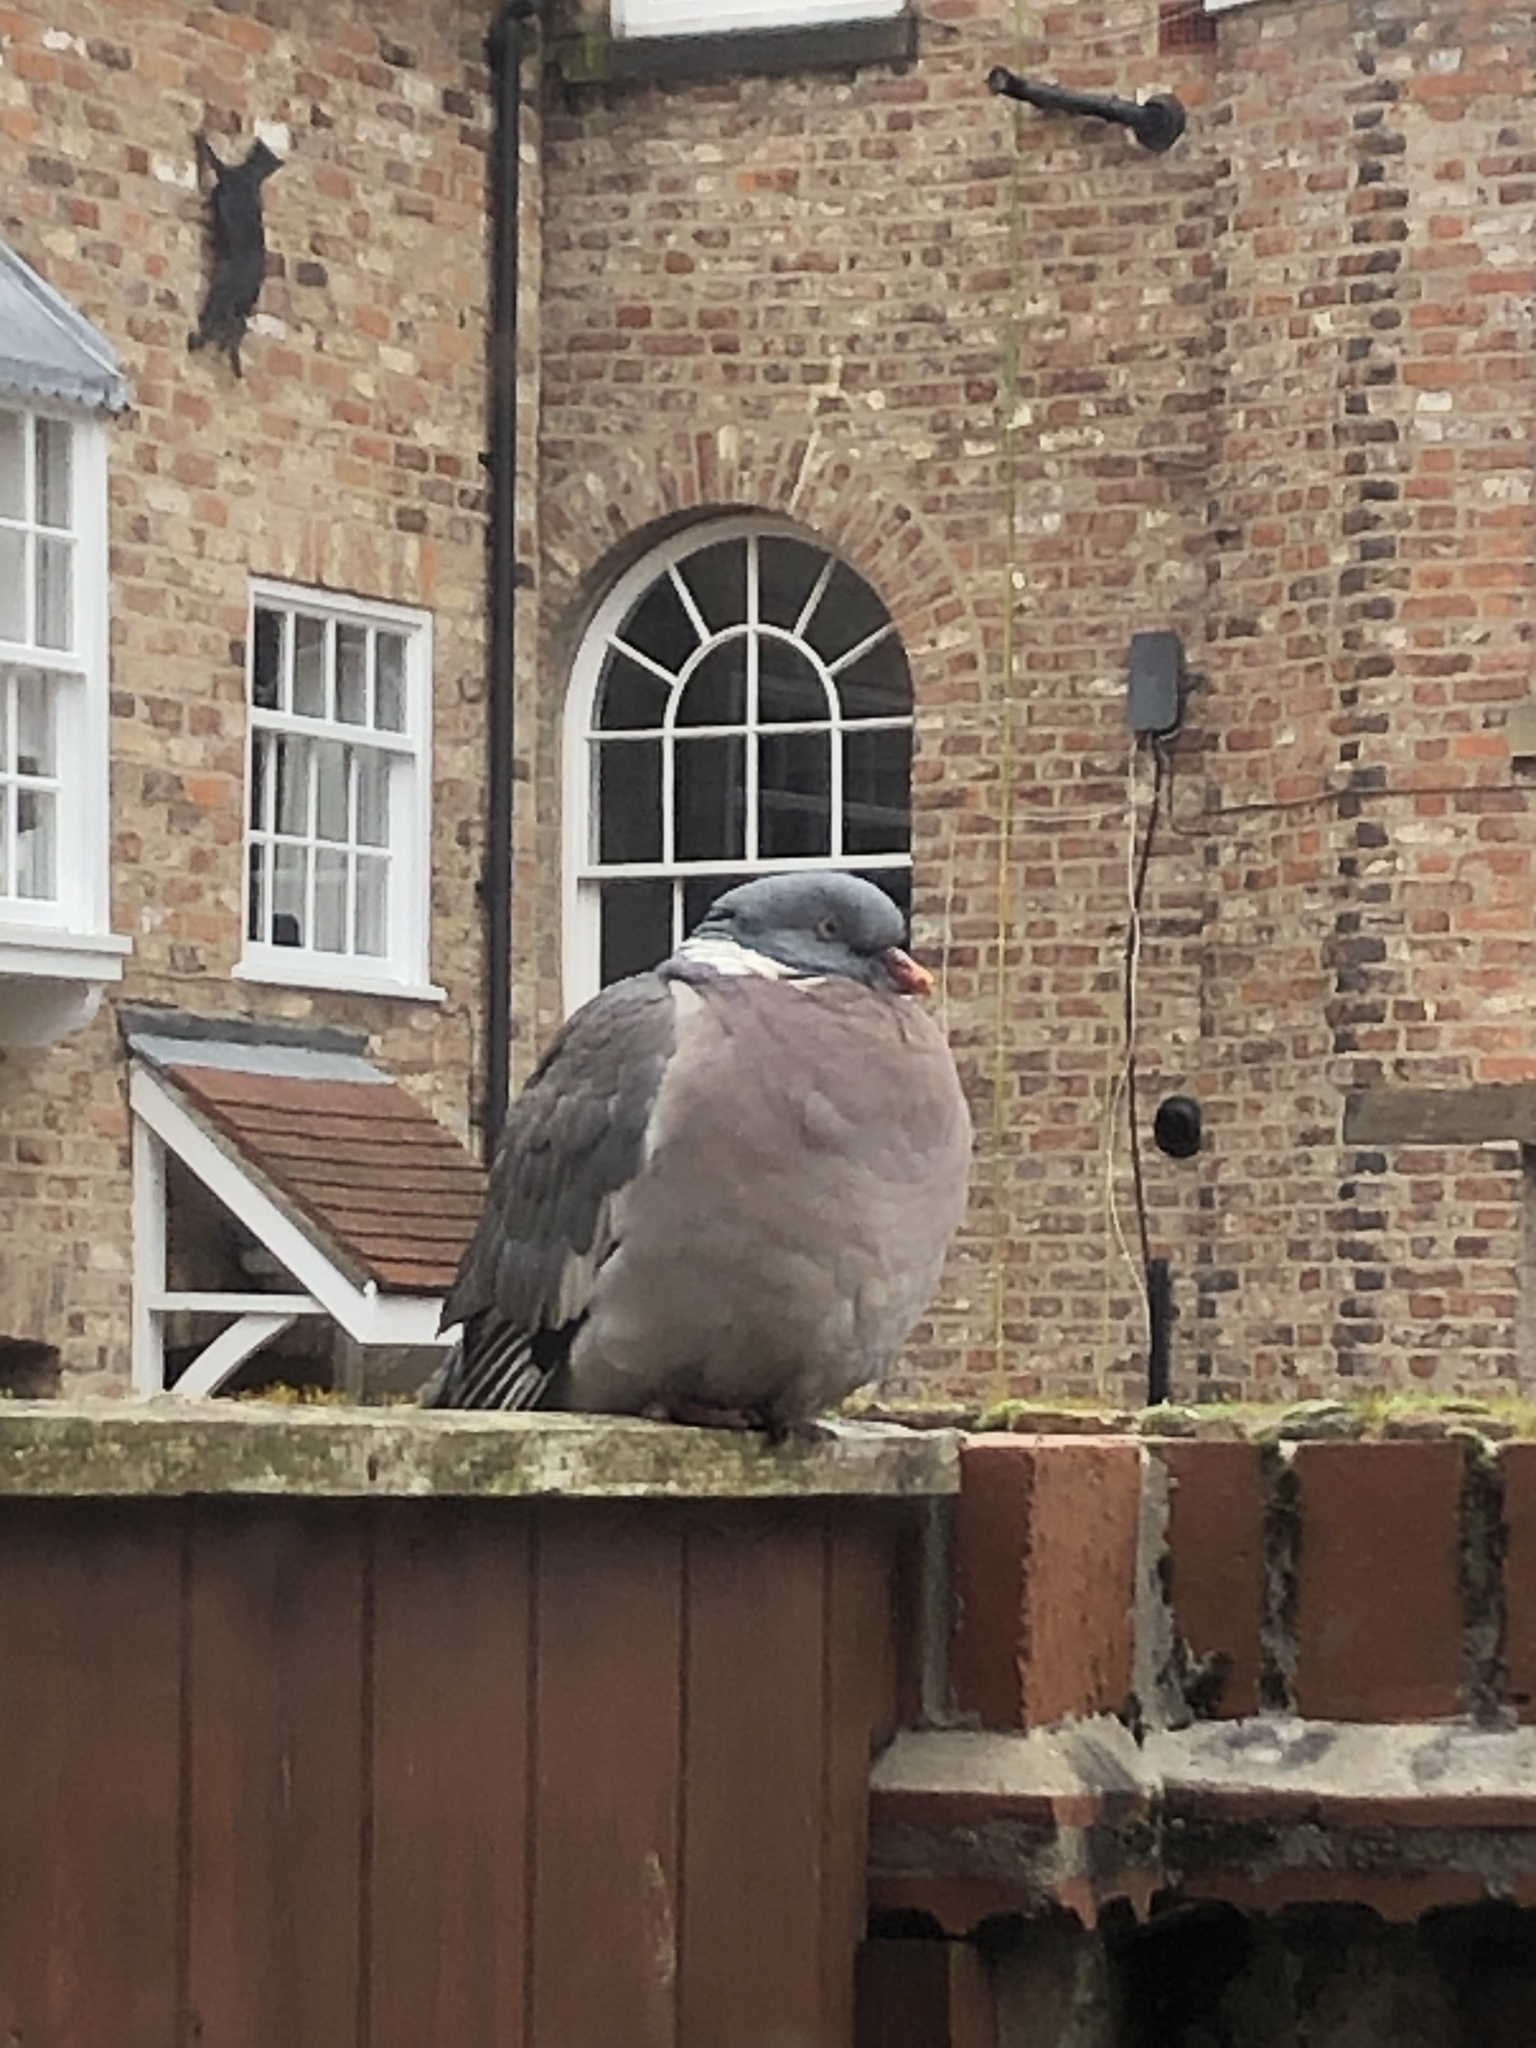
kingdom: Animalia
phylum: Chordata
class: Aves
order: Columbiformes
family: Columbidae
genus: Columba
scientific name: Columba palumbus
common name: Common wood pigeon
